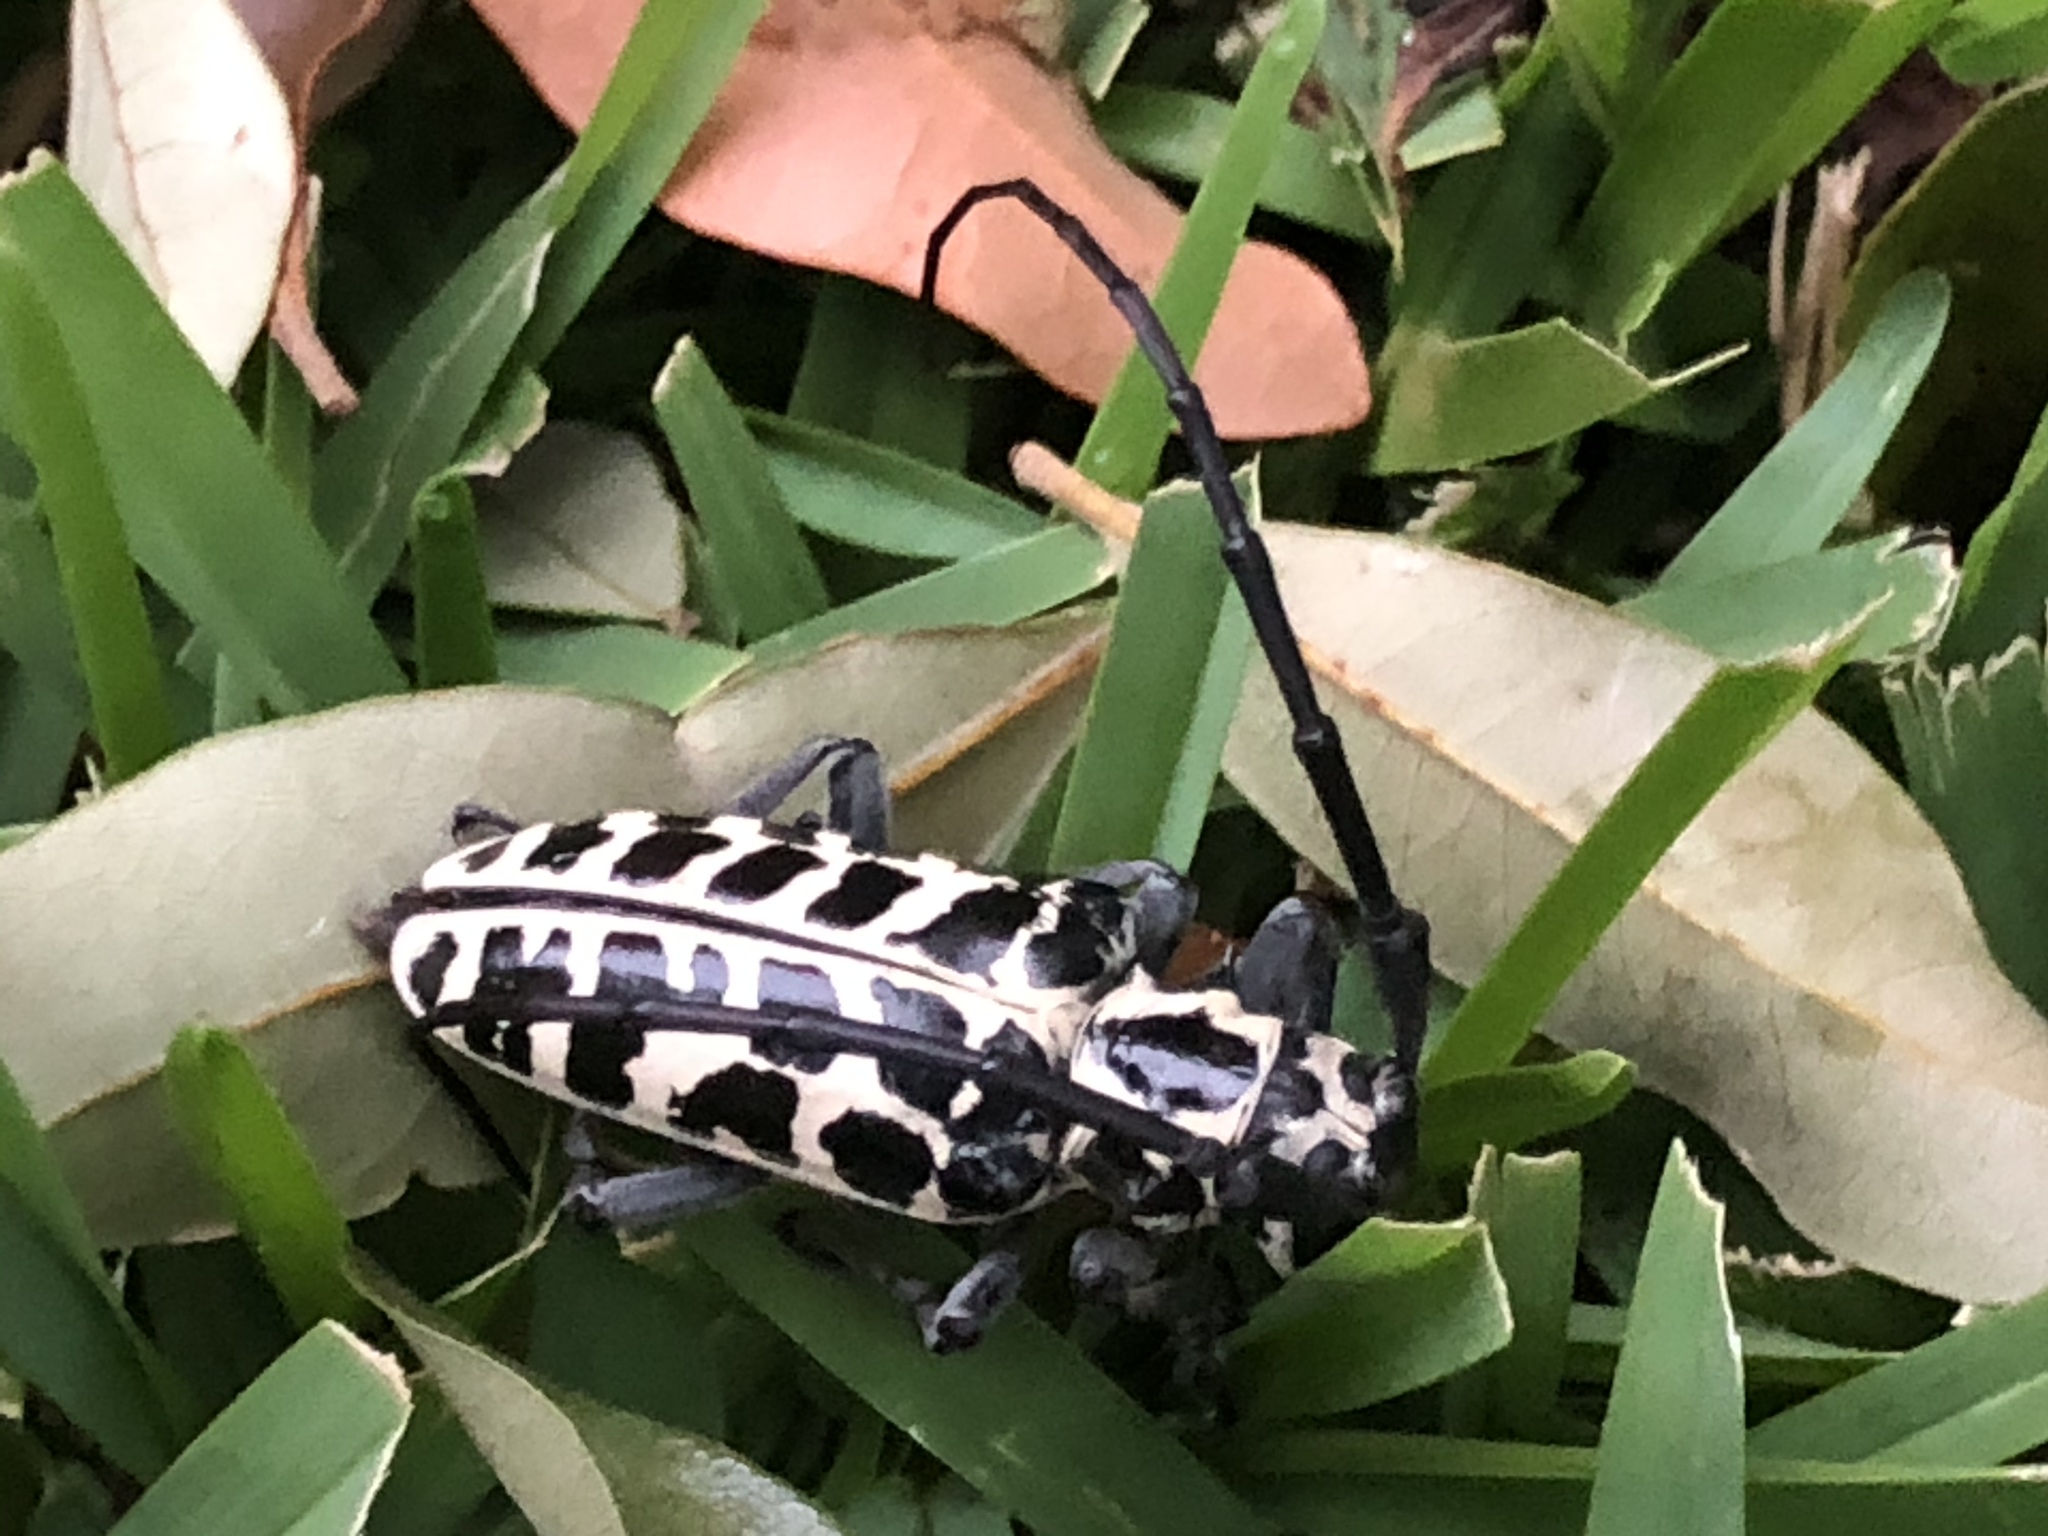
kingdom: Animalia
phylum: Arthropoda
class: Insecta
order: Coleoptera
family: Cerambycidae
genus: Plectrodera
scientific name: Plectrodera scalator
